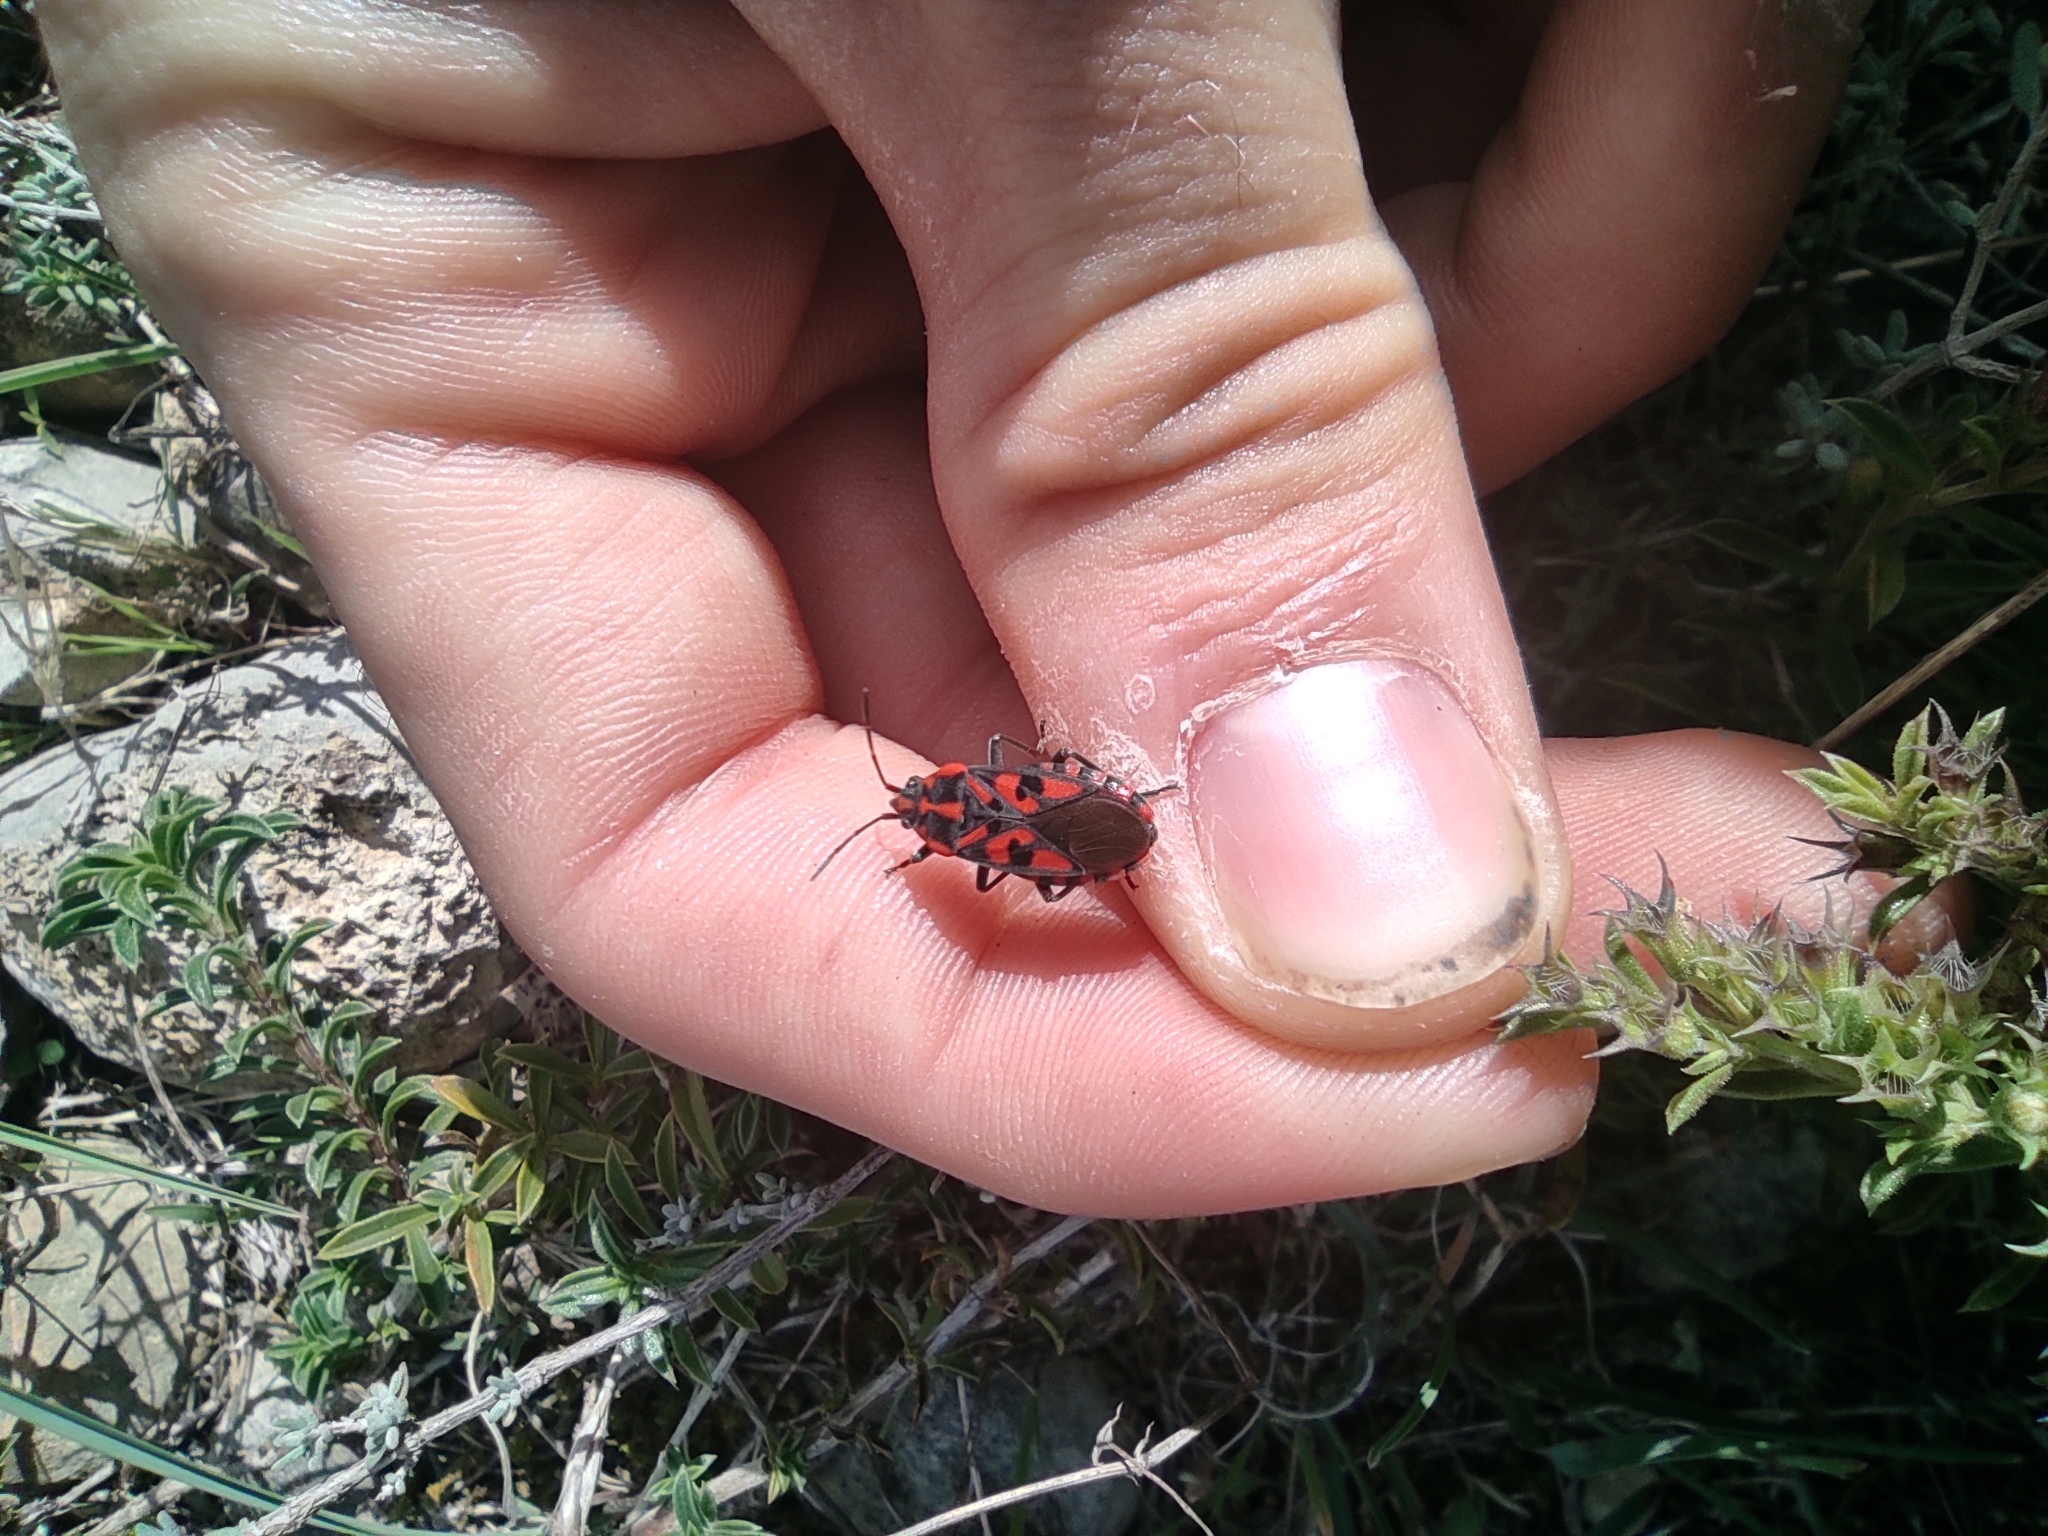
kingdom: Animalia
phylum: Arthropoda
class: Insecta
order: Hemiptera
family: Lygaeidae
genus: Spilostethus
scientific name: Spilostethus saxatilis
